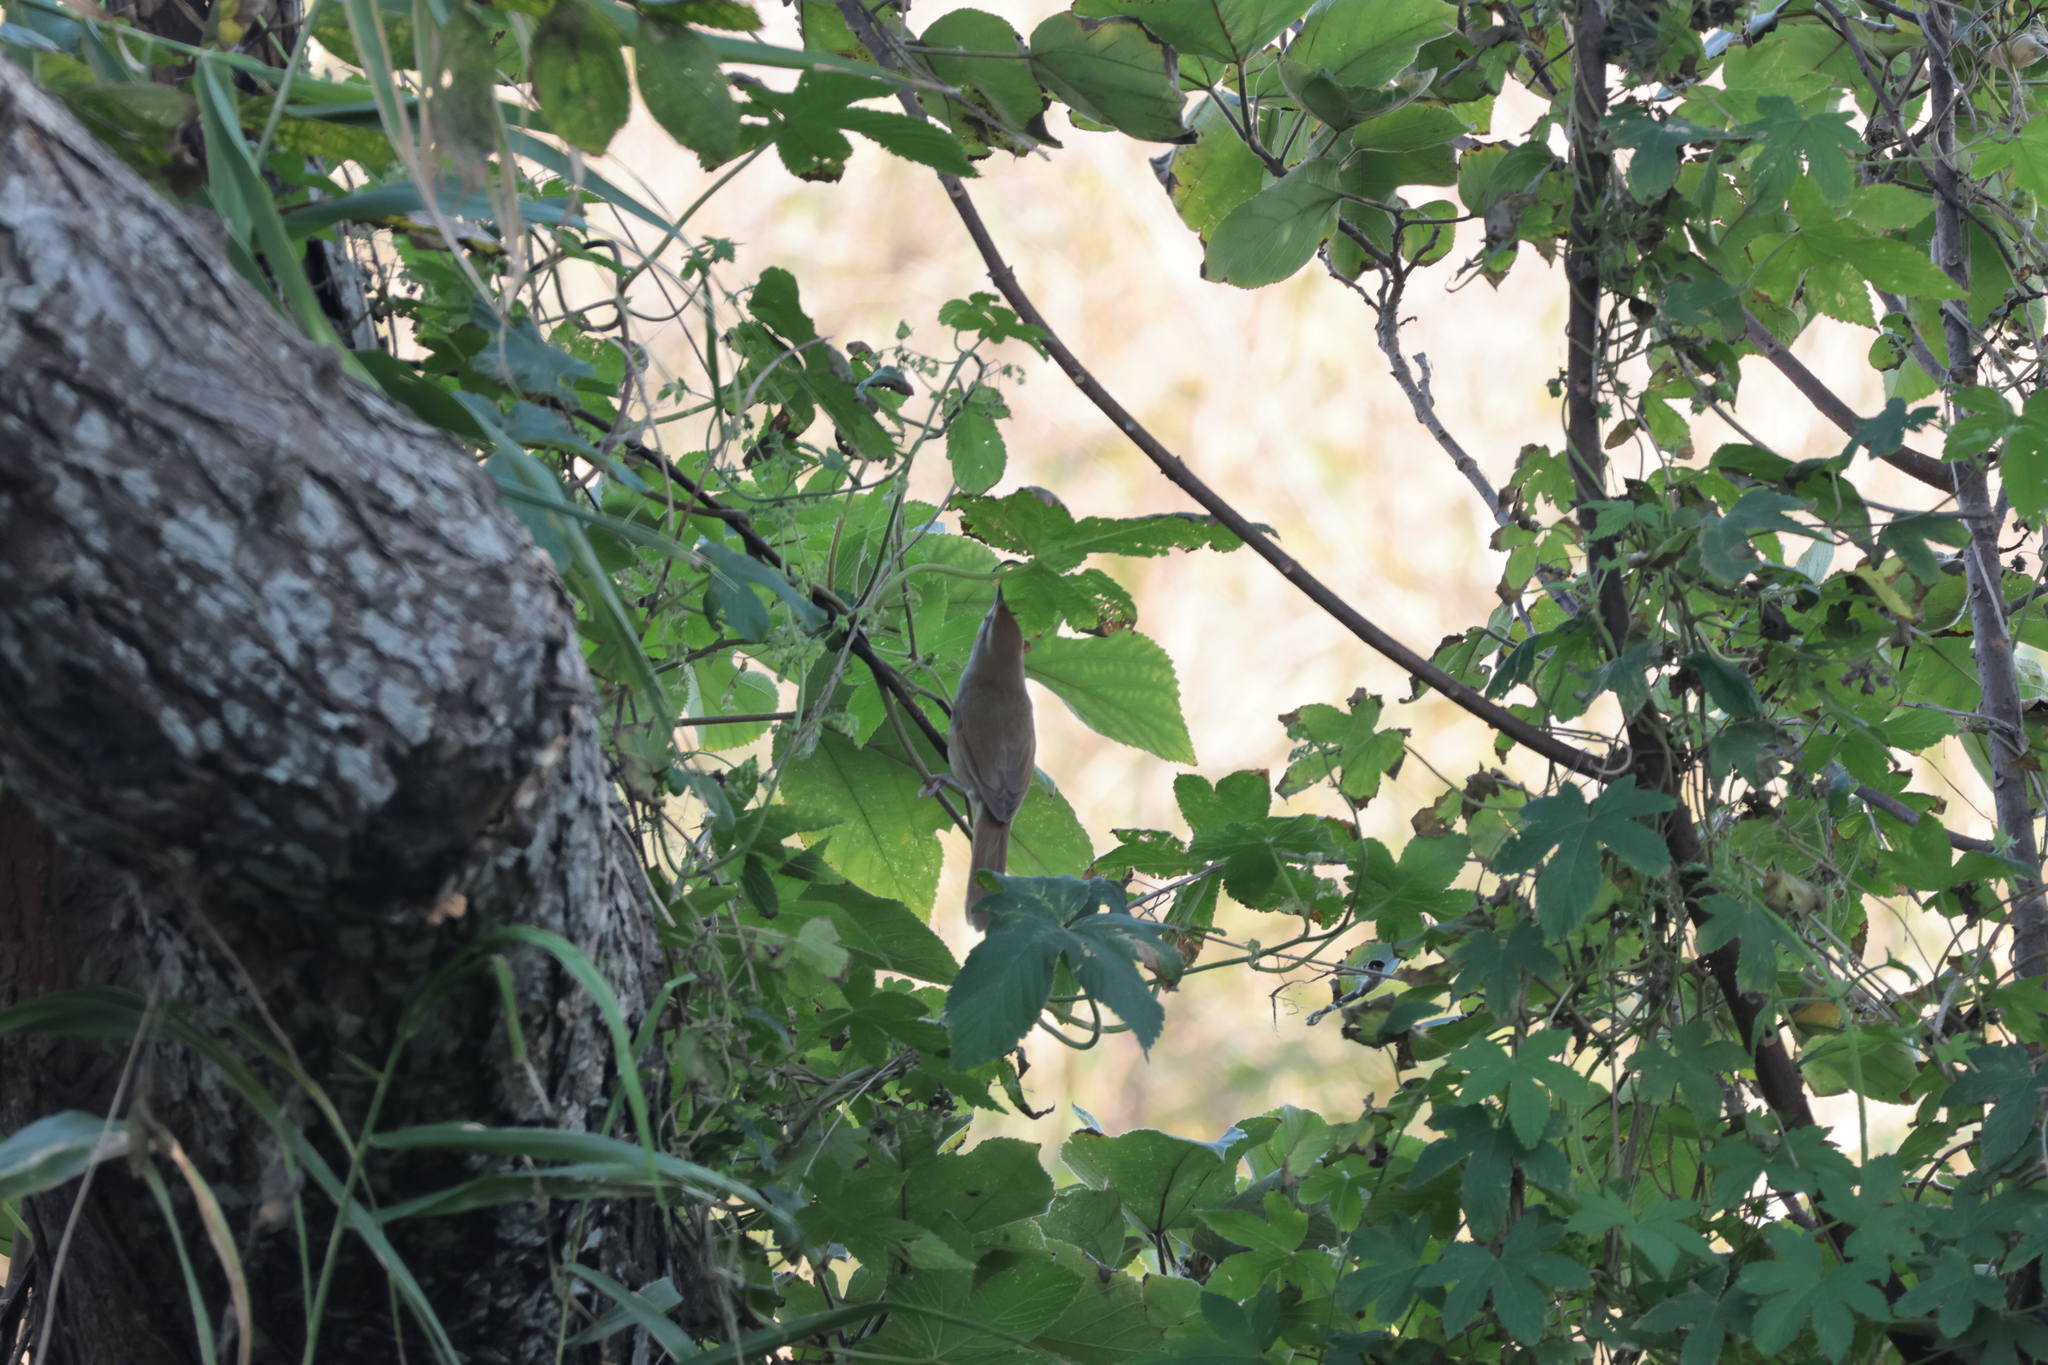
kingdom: Animalia
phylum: Chordata
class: Aves
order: Passeriformes
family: Cettiidae
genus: Horornis
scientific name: Horornis diphone
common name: Japanese bush warbler
